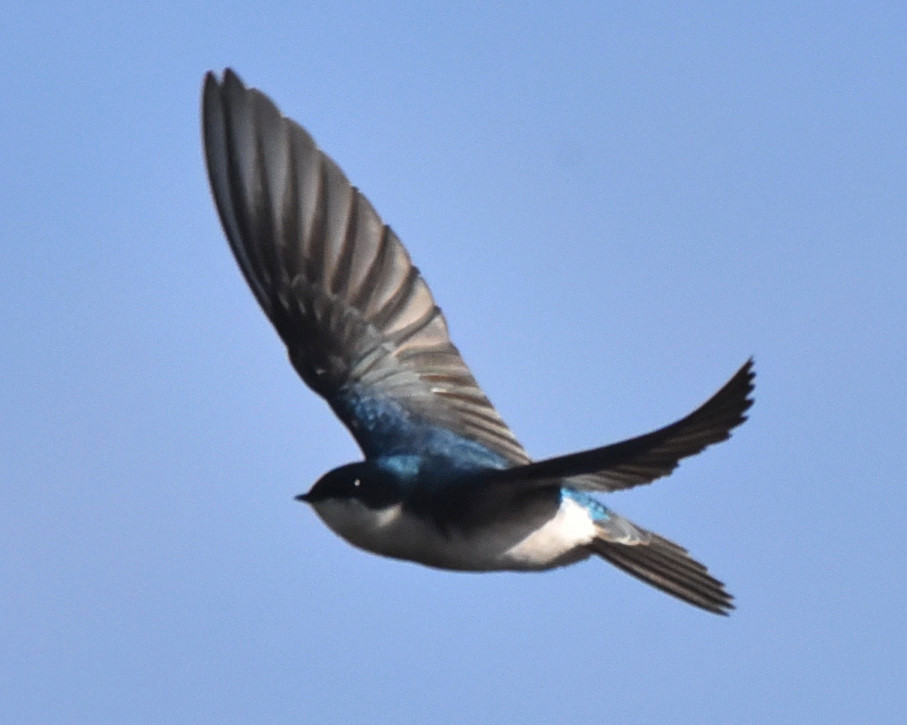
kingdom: Animalia
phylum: Chordata
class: Aves
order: Passeriformes
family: Hirundinidae
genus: Tachycineta
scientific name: Tachycineta bicolor
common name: Tree swallow
